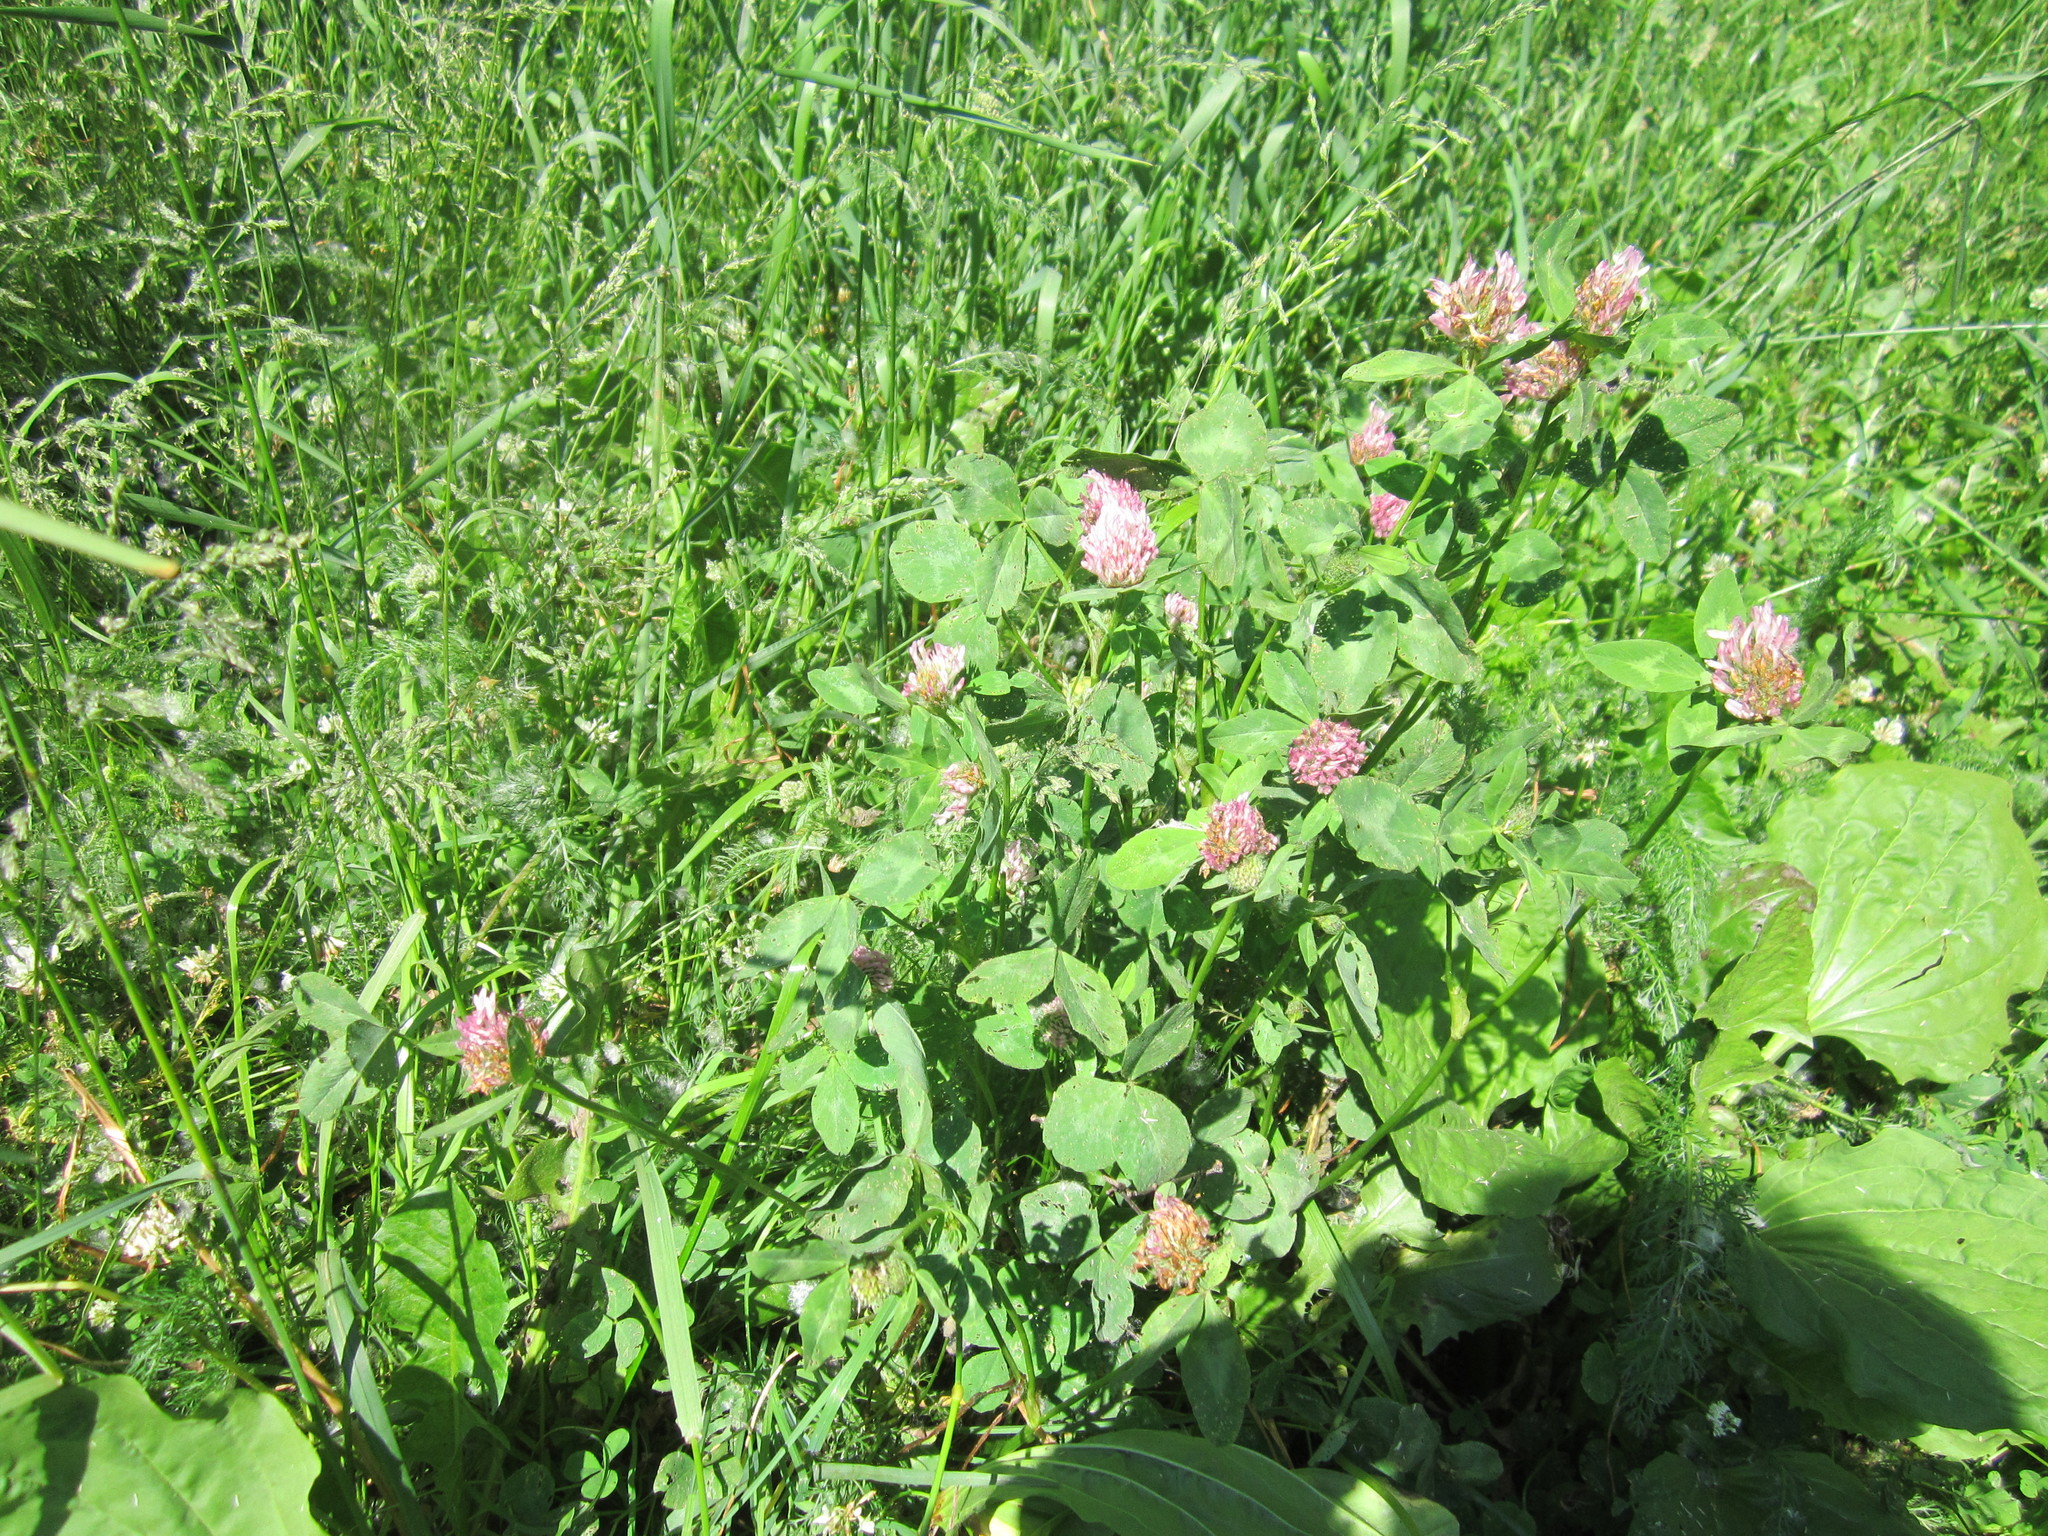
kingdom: Plantae
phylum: Tracheophyta
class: Magnoliopsida
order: Fabales
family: Fabaceae
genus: Trifolium
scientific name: Trifolium pratense
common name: Red clover
